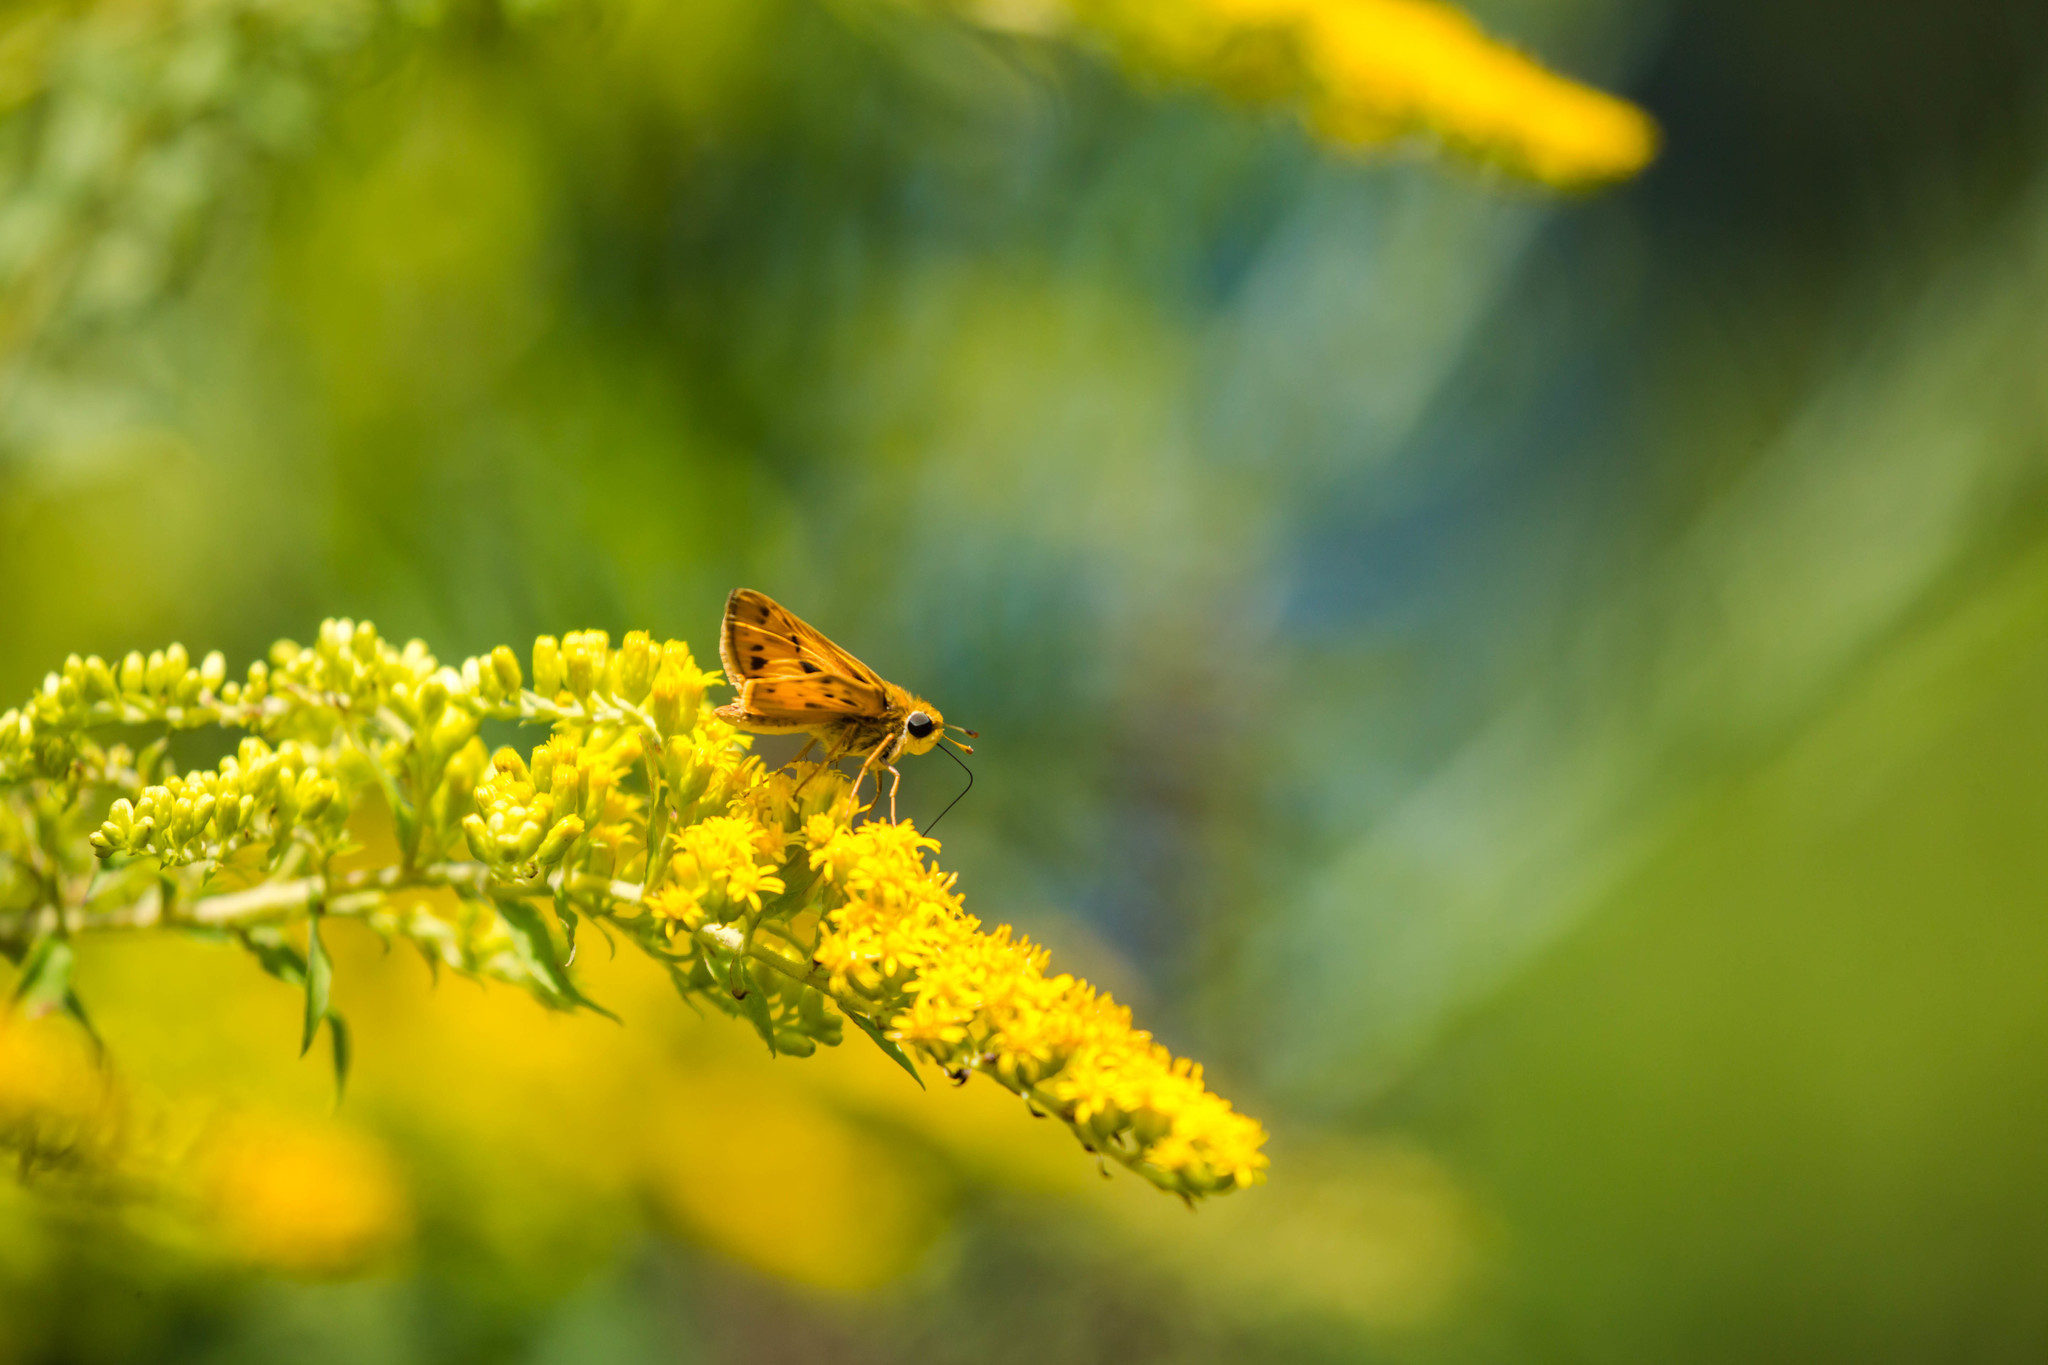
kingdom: Animalia
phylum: Arthropoda
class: Insecta
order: Lepidoptera
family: Hesperiidae
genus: Hylephila
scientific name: Hylephila phyleus
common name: Fiery skipper
